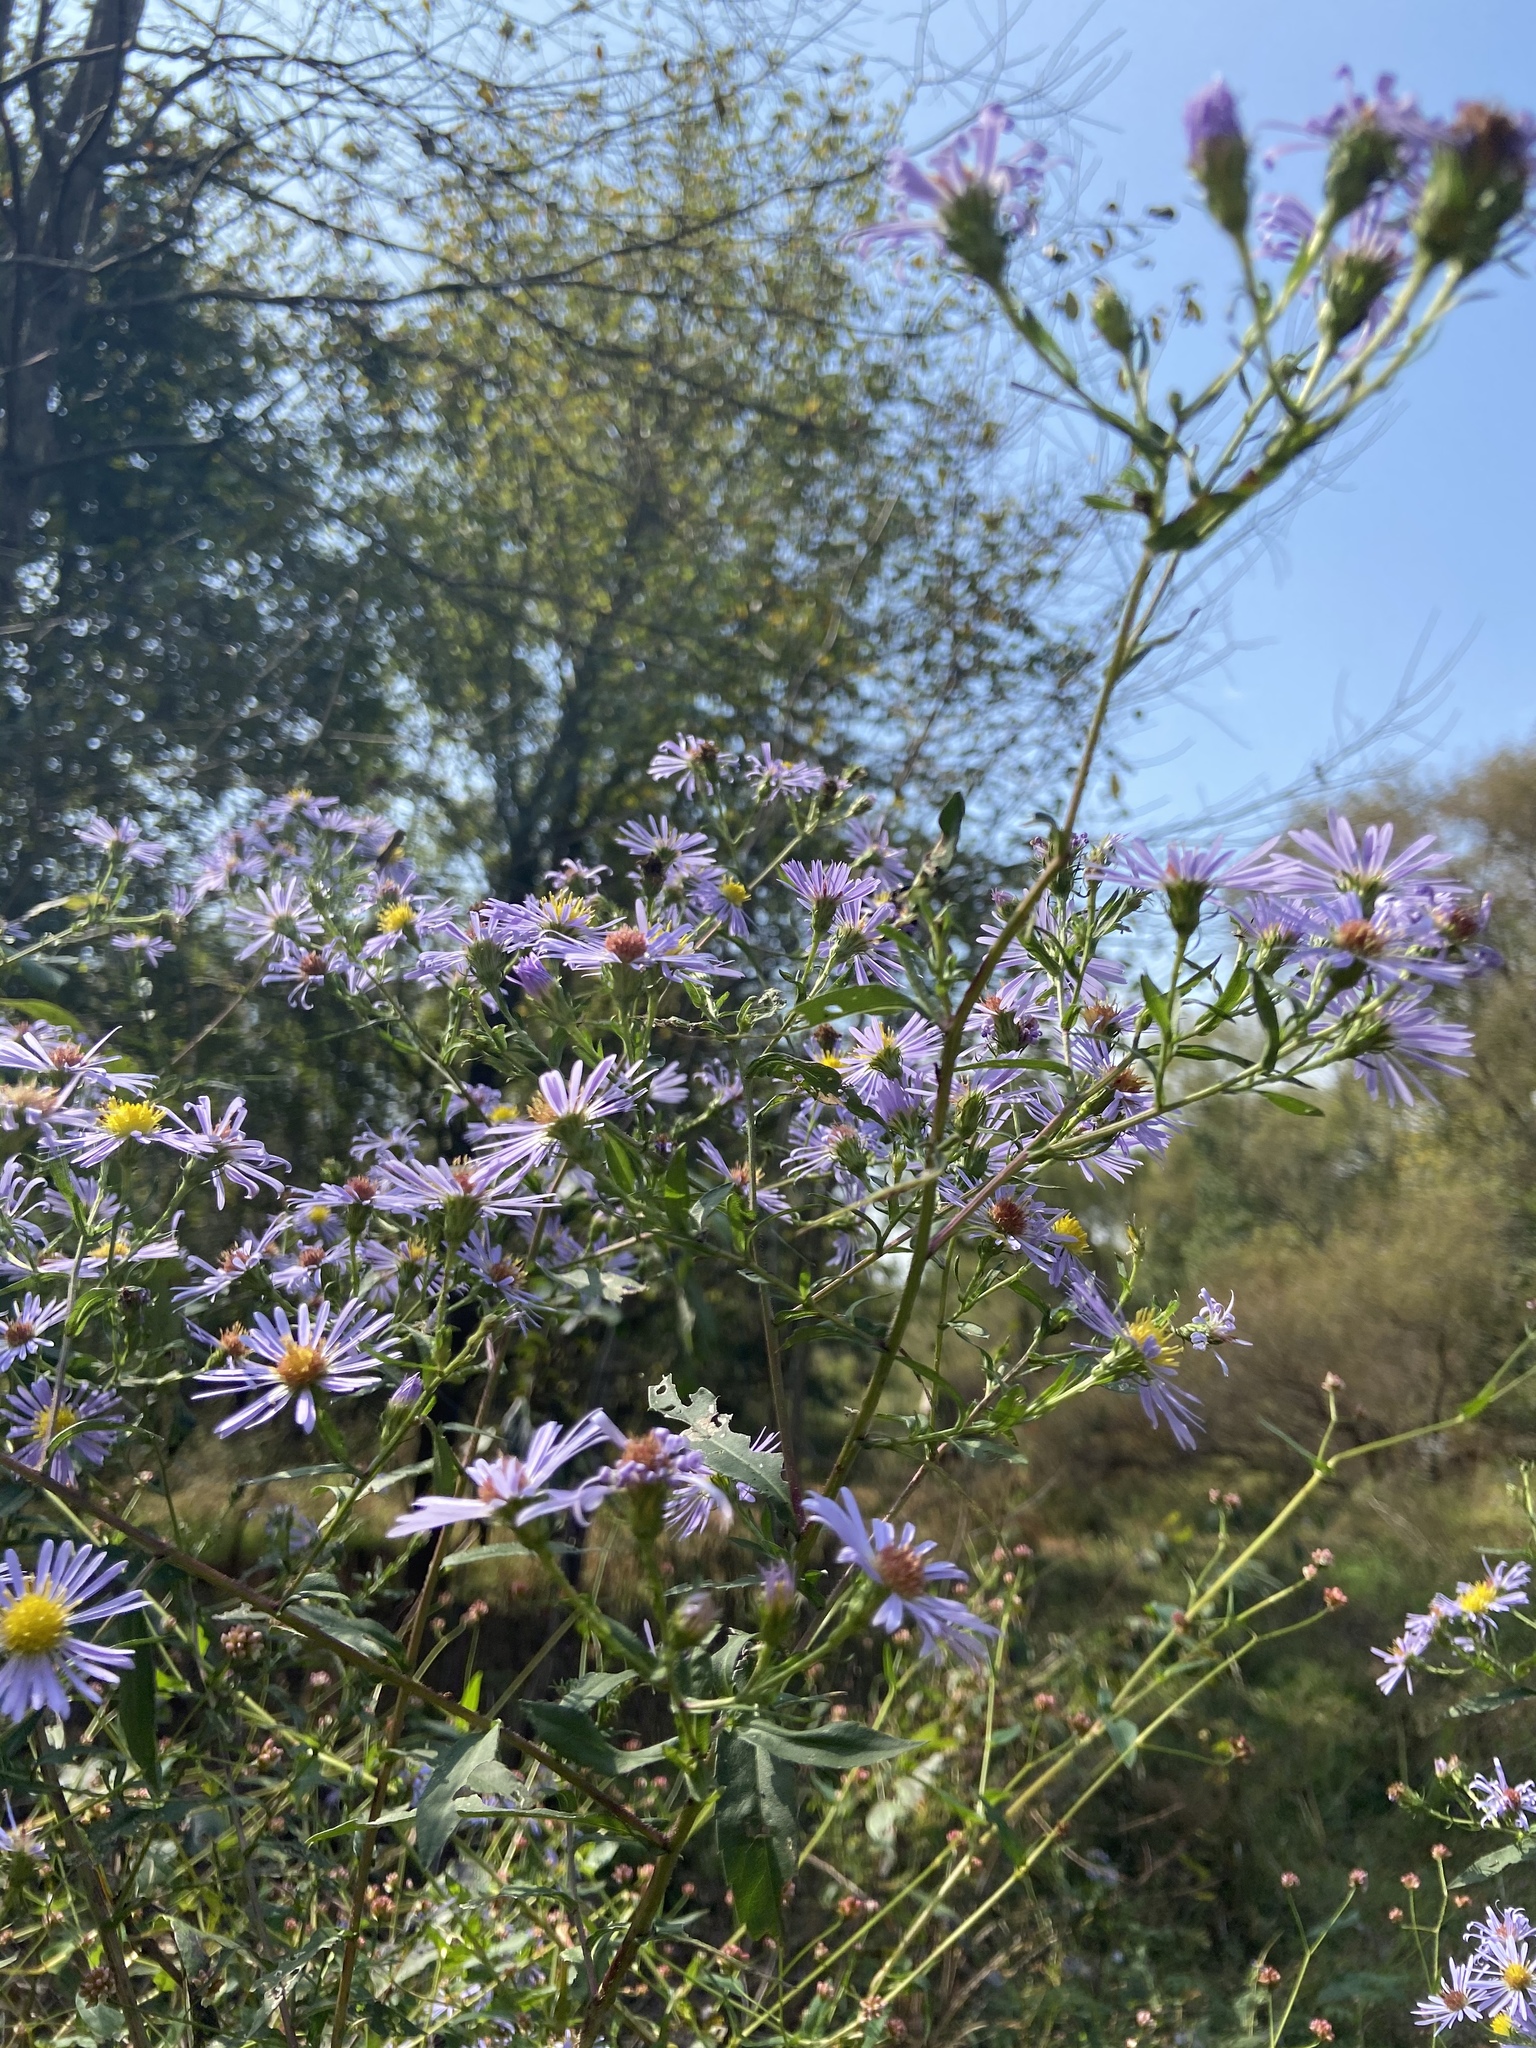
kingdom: Plantae
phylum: Tracheophyta
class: Magnoliopsida
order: Asterales
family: Asteraceae
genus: Symphyotrichum
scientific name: Symphyotrichum puniceum
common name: Bog aster
